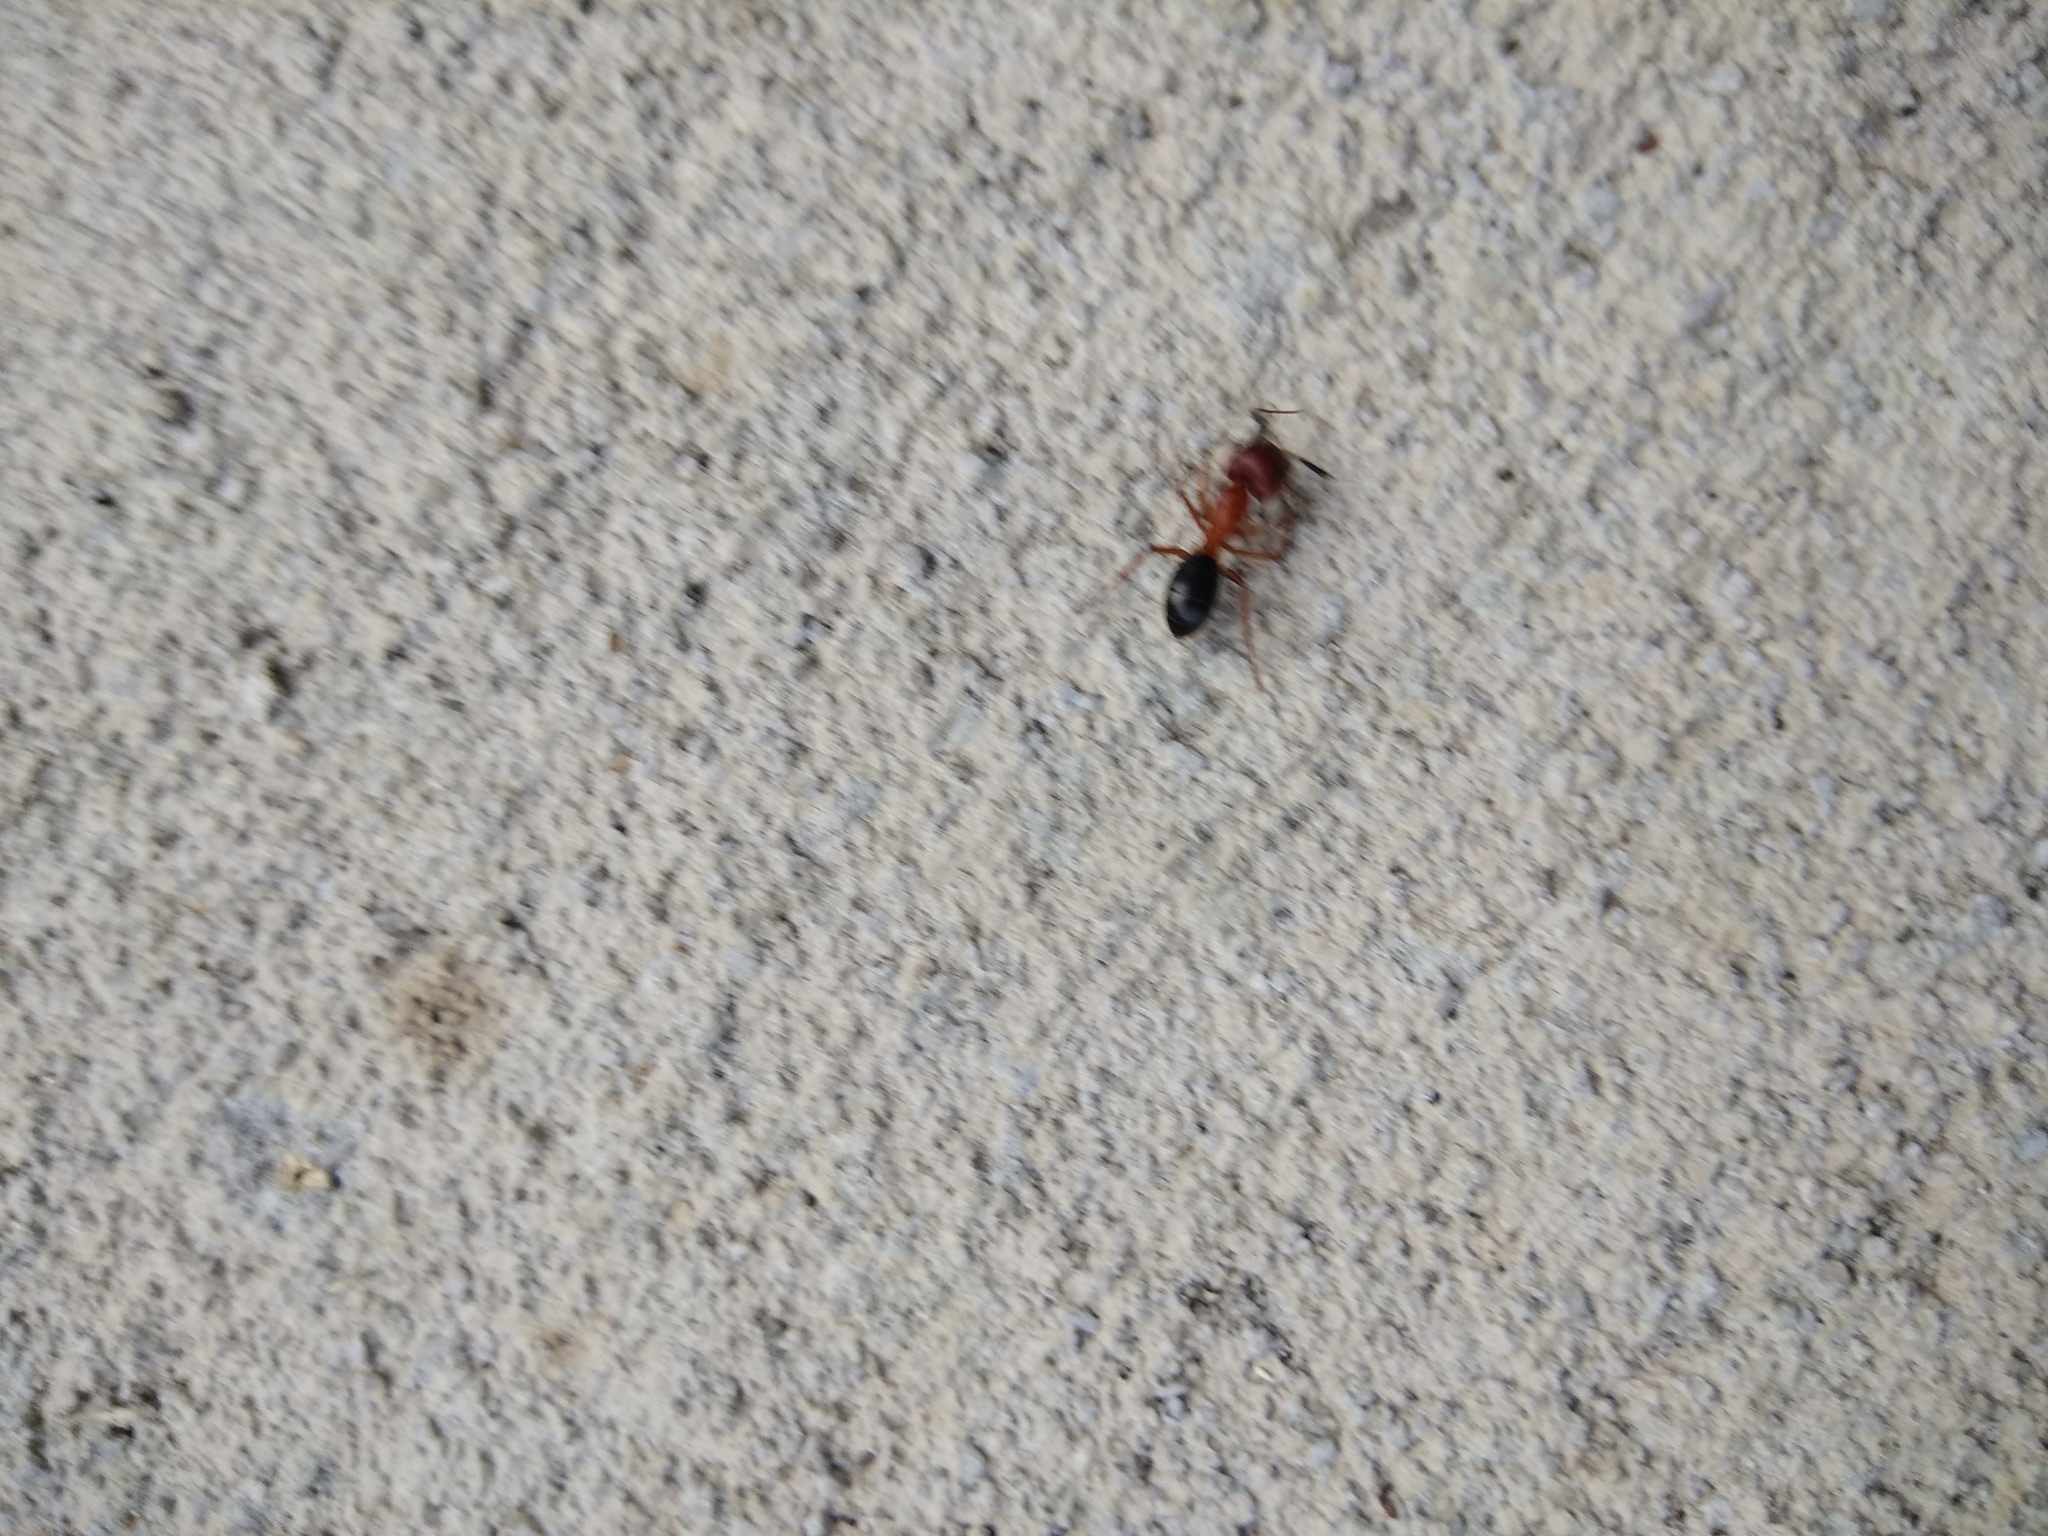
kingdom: Animalia
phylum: Arthropoda
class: Insecta
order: Hymenoptera
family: Formicidae
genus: Camponotus
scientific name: Camponotus floridanus
